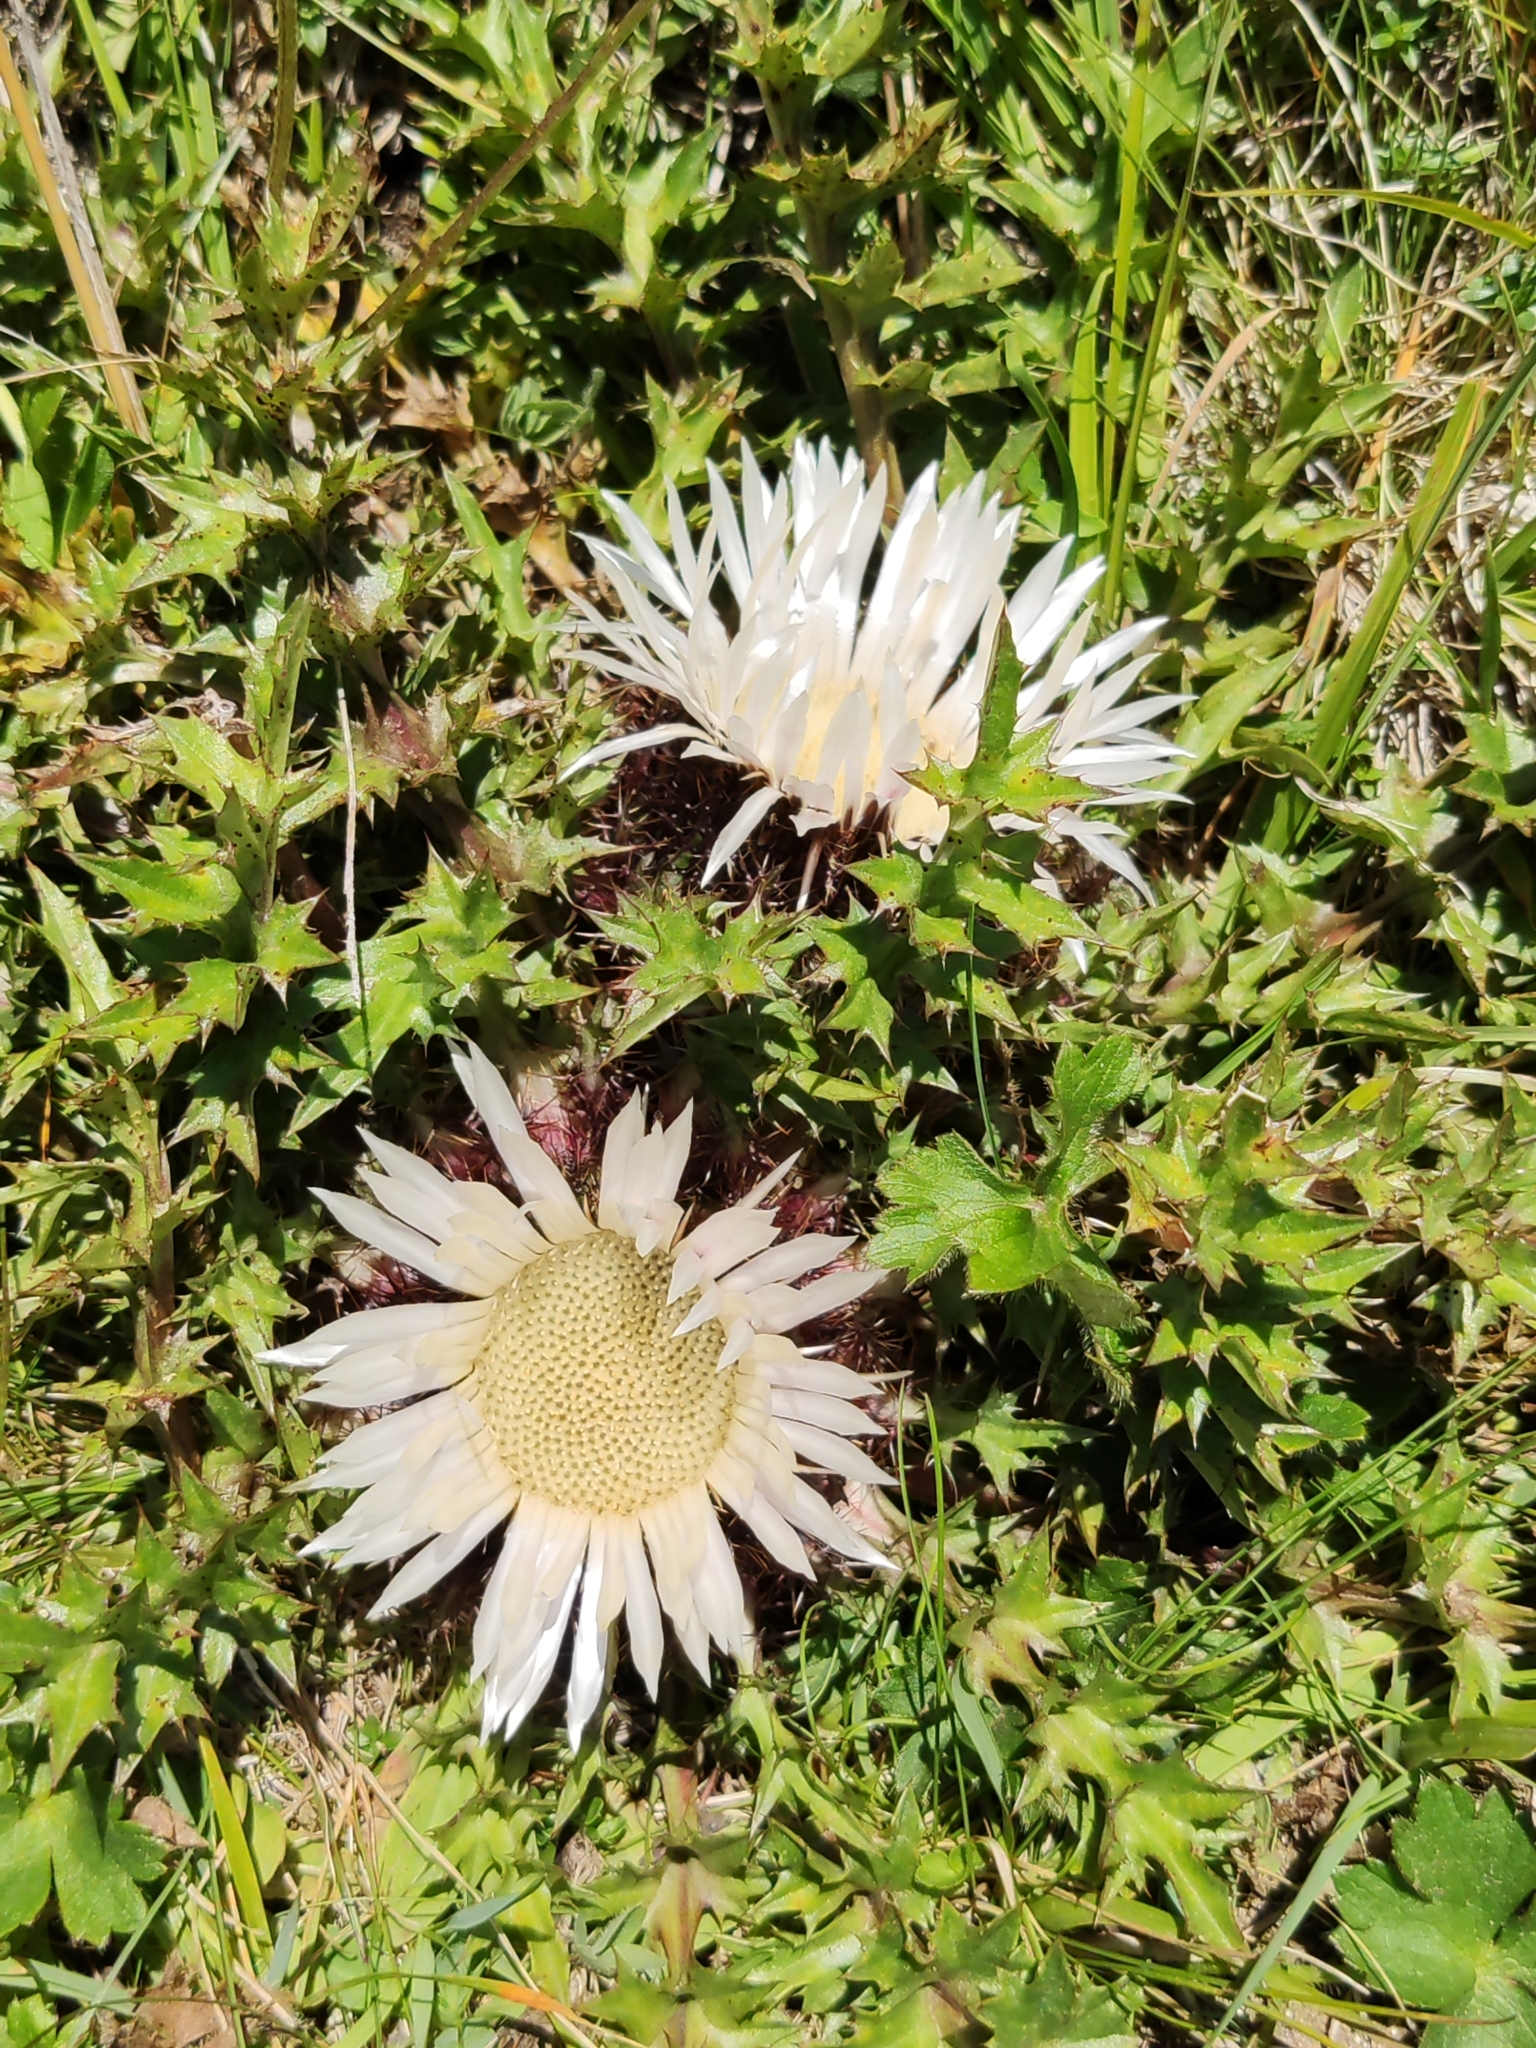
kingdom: Plantae
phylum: Tracheophyta
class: Magnoliopsida
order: Asterales
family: Asteraceae
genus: Carlina
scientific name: Carlina acaulis
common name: Stemless carline thistle
